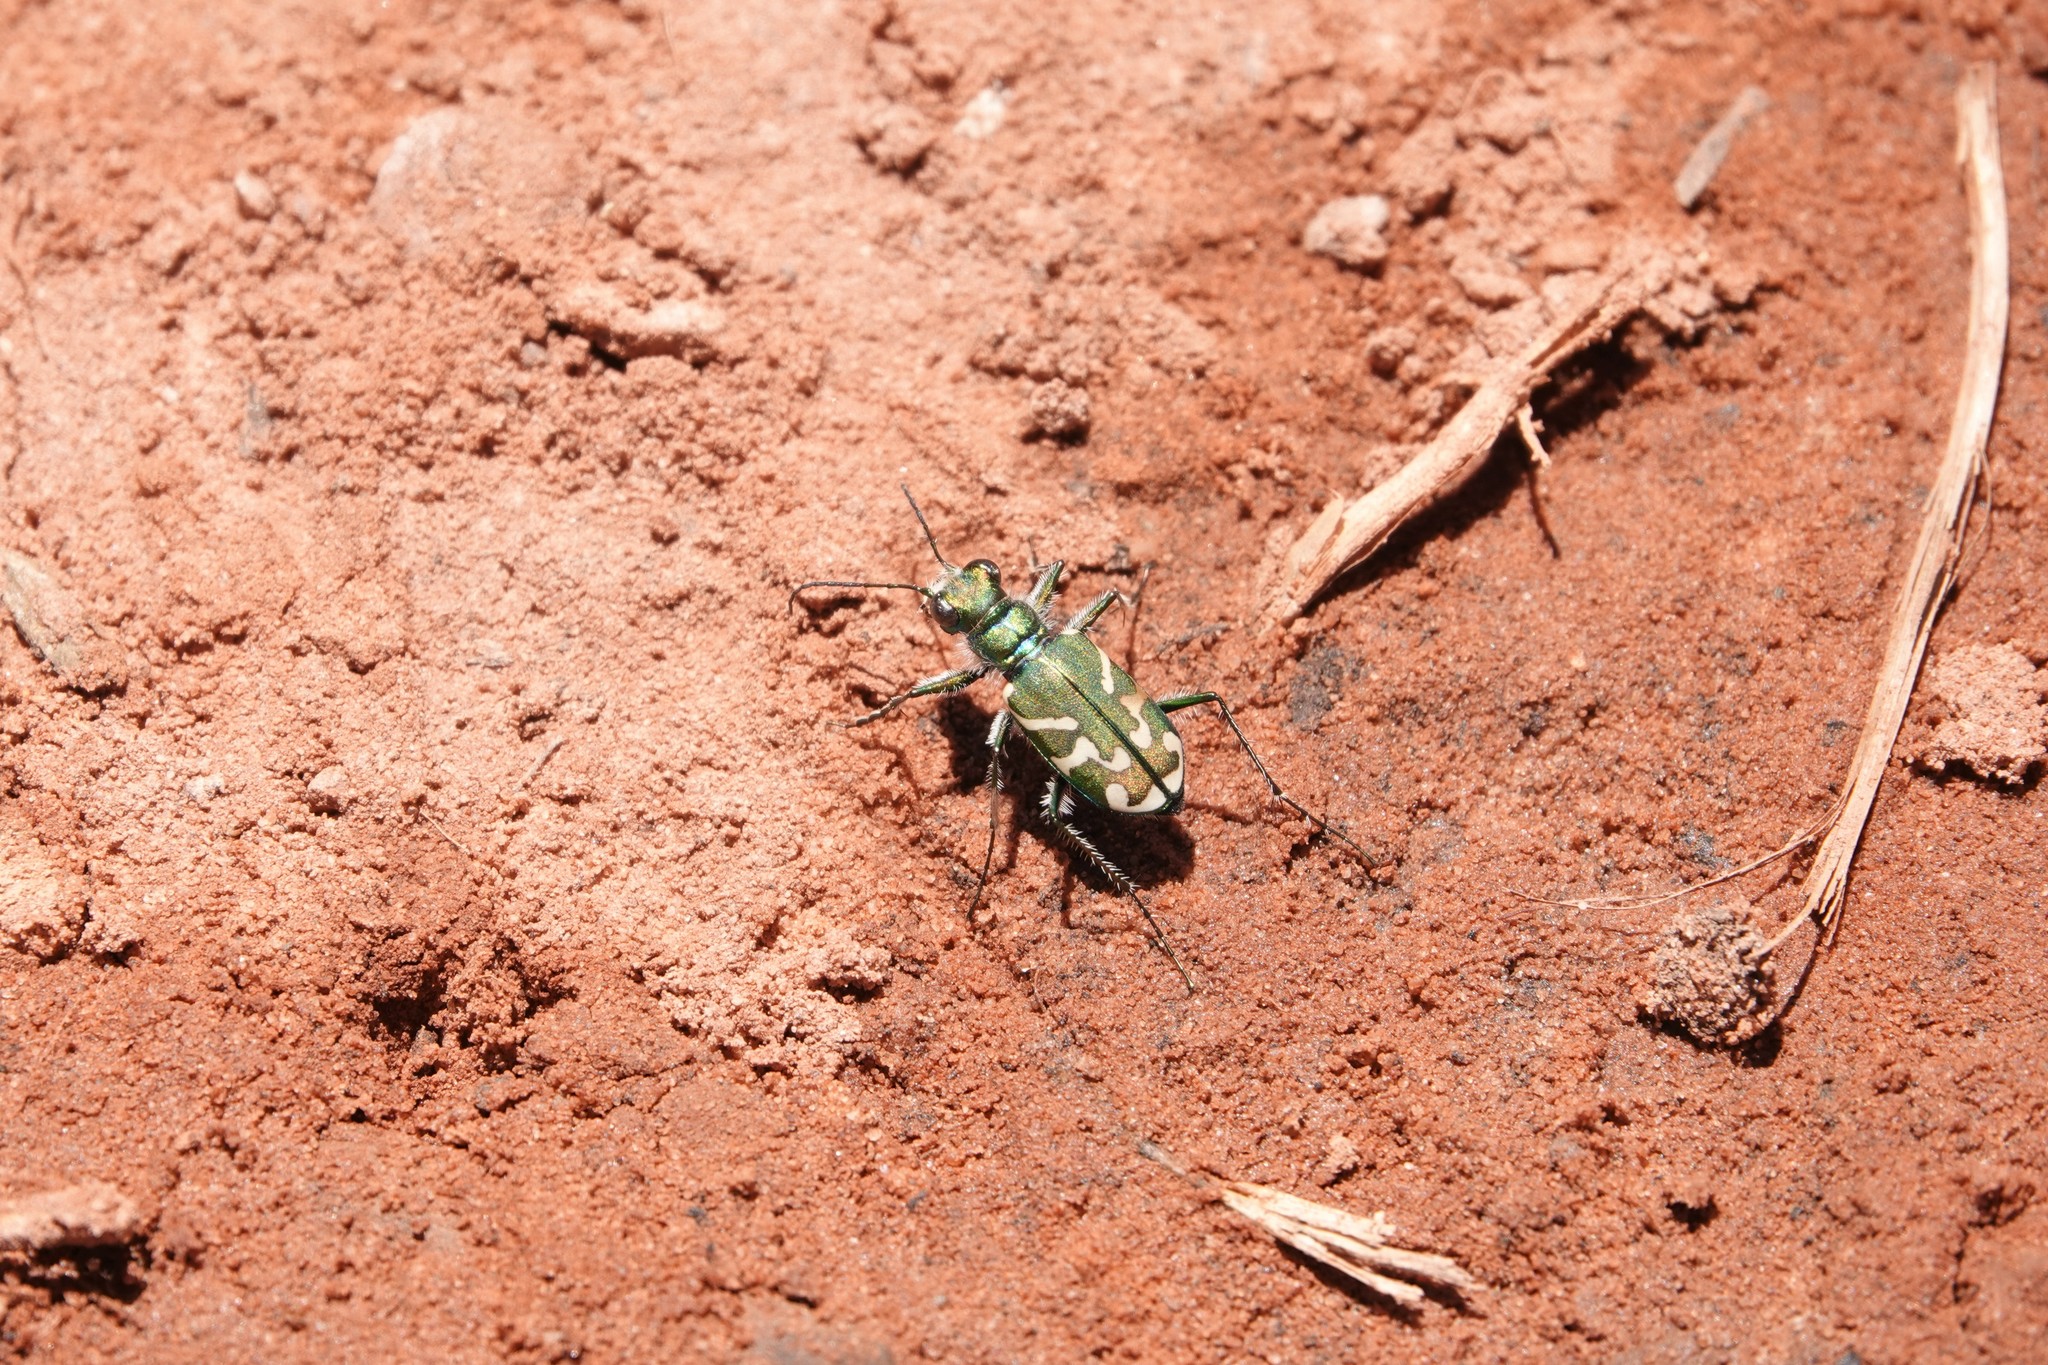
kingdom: Animalia
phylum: Arthropoda
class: Insecta
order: Coleoptera
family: Carabidae
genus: Cicindela
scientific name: Cicindela tranquebarica
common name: Oblique-lined tiger beetle
